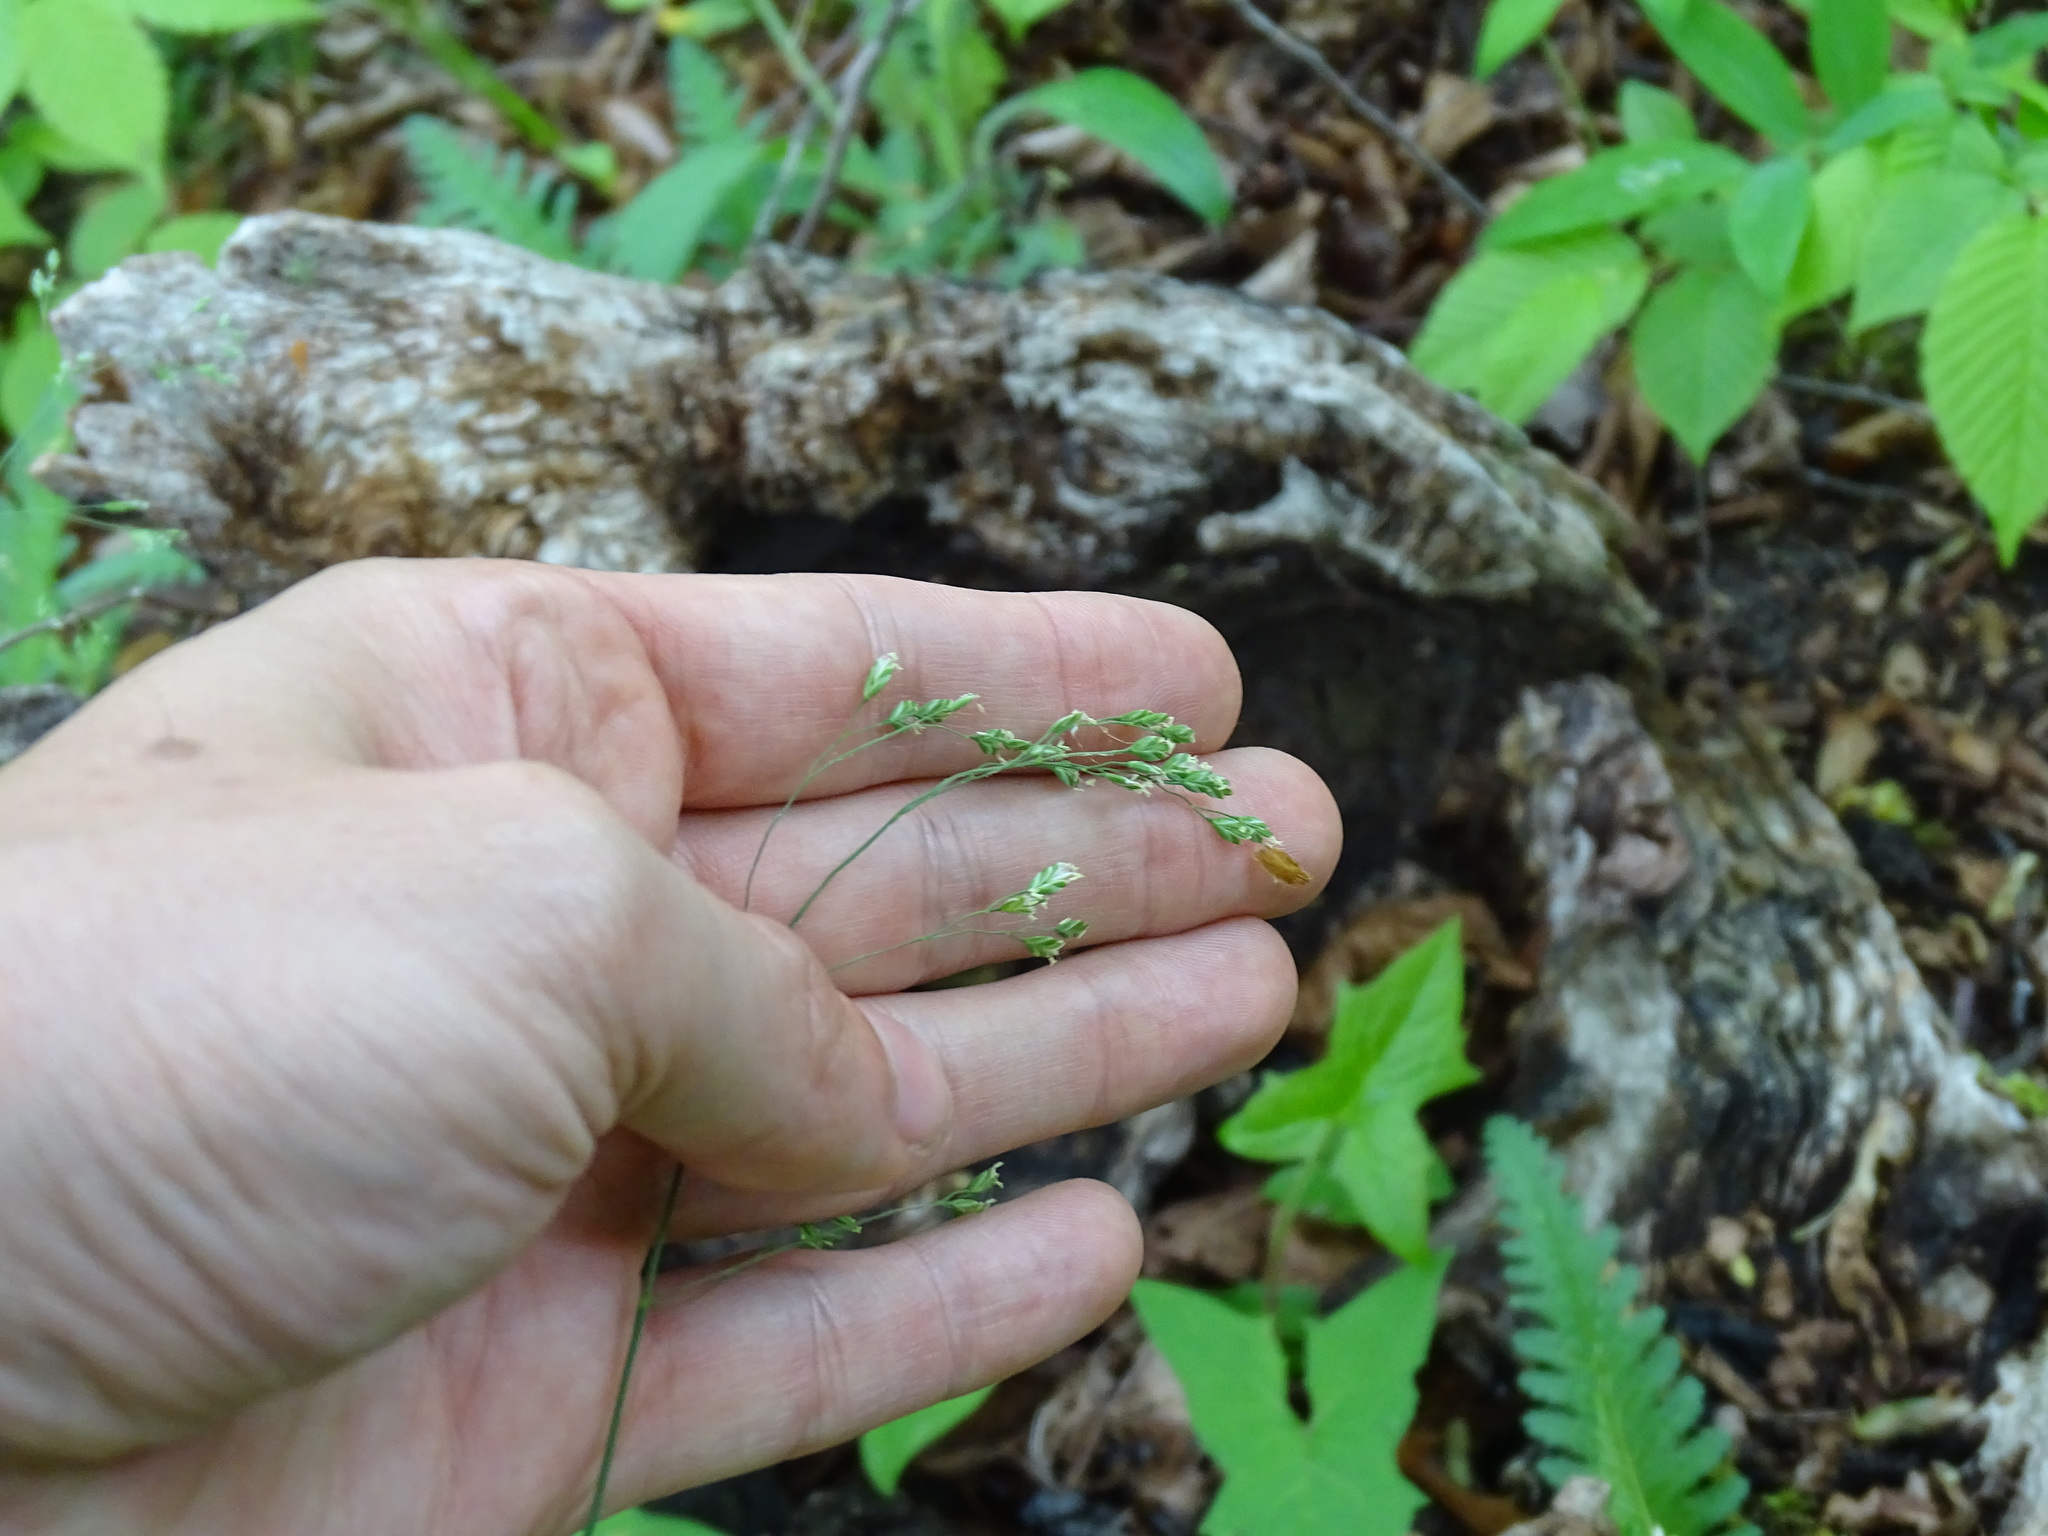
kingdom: Plantae
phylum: Tracheophyta
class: Liliopsida
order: Poales
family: Poaceae
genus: Poa
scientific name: Poa saltuensis
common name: Bushy pasture speargrass
